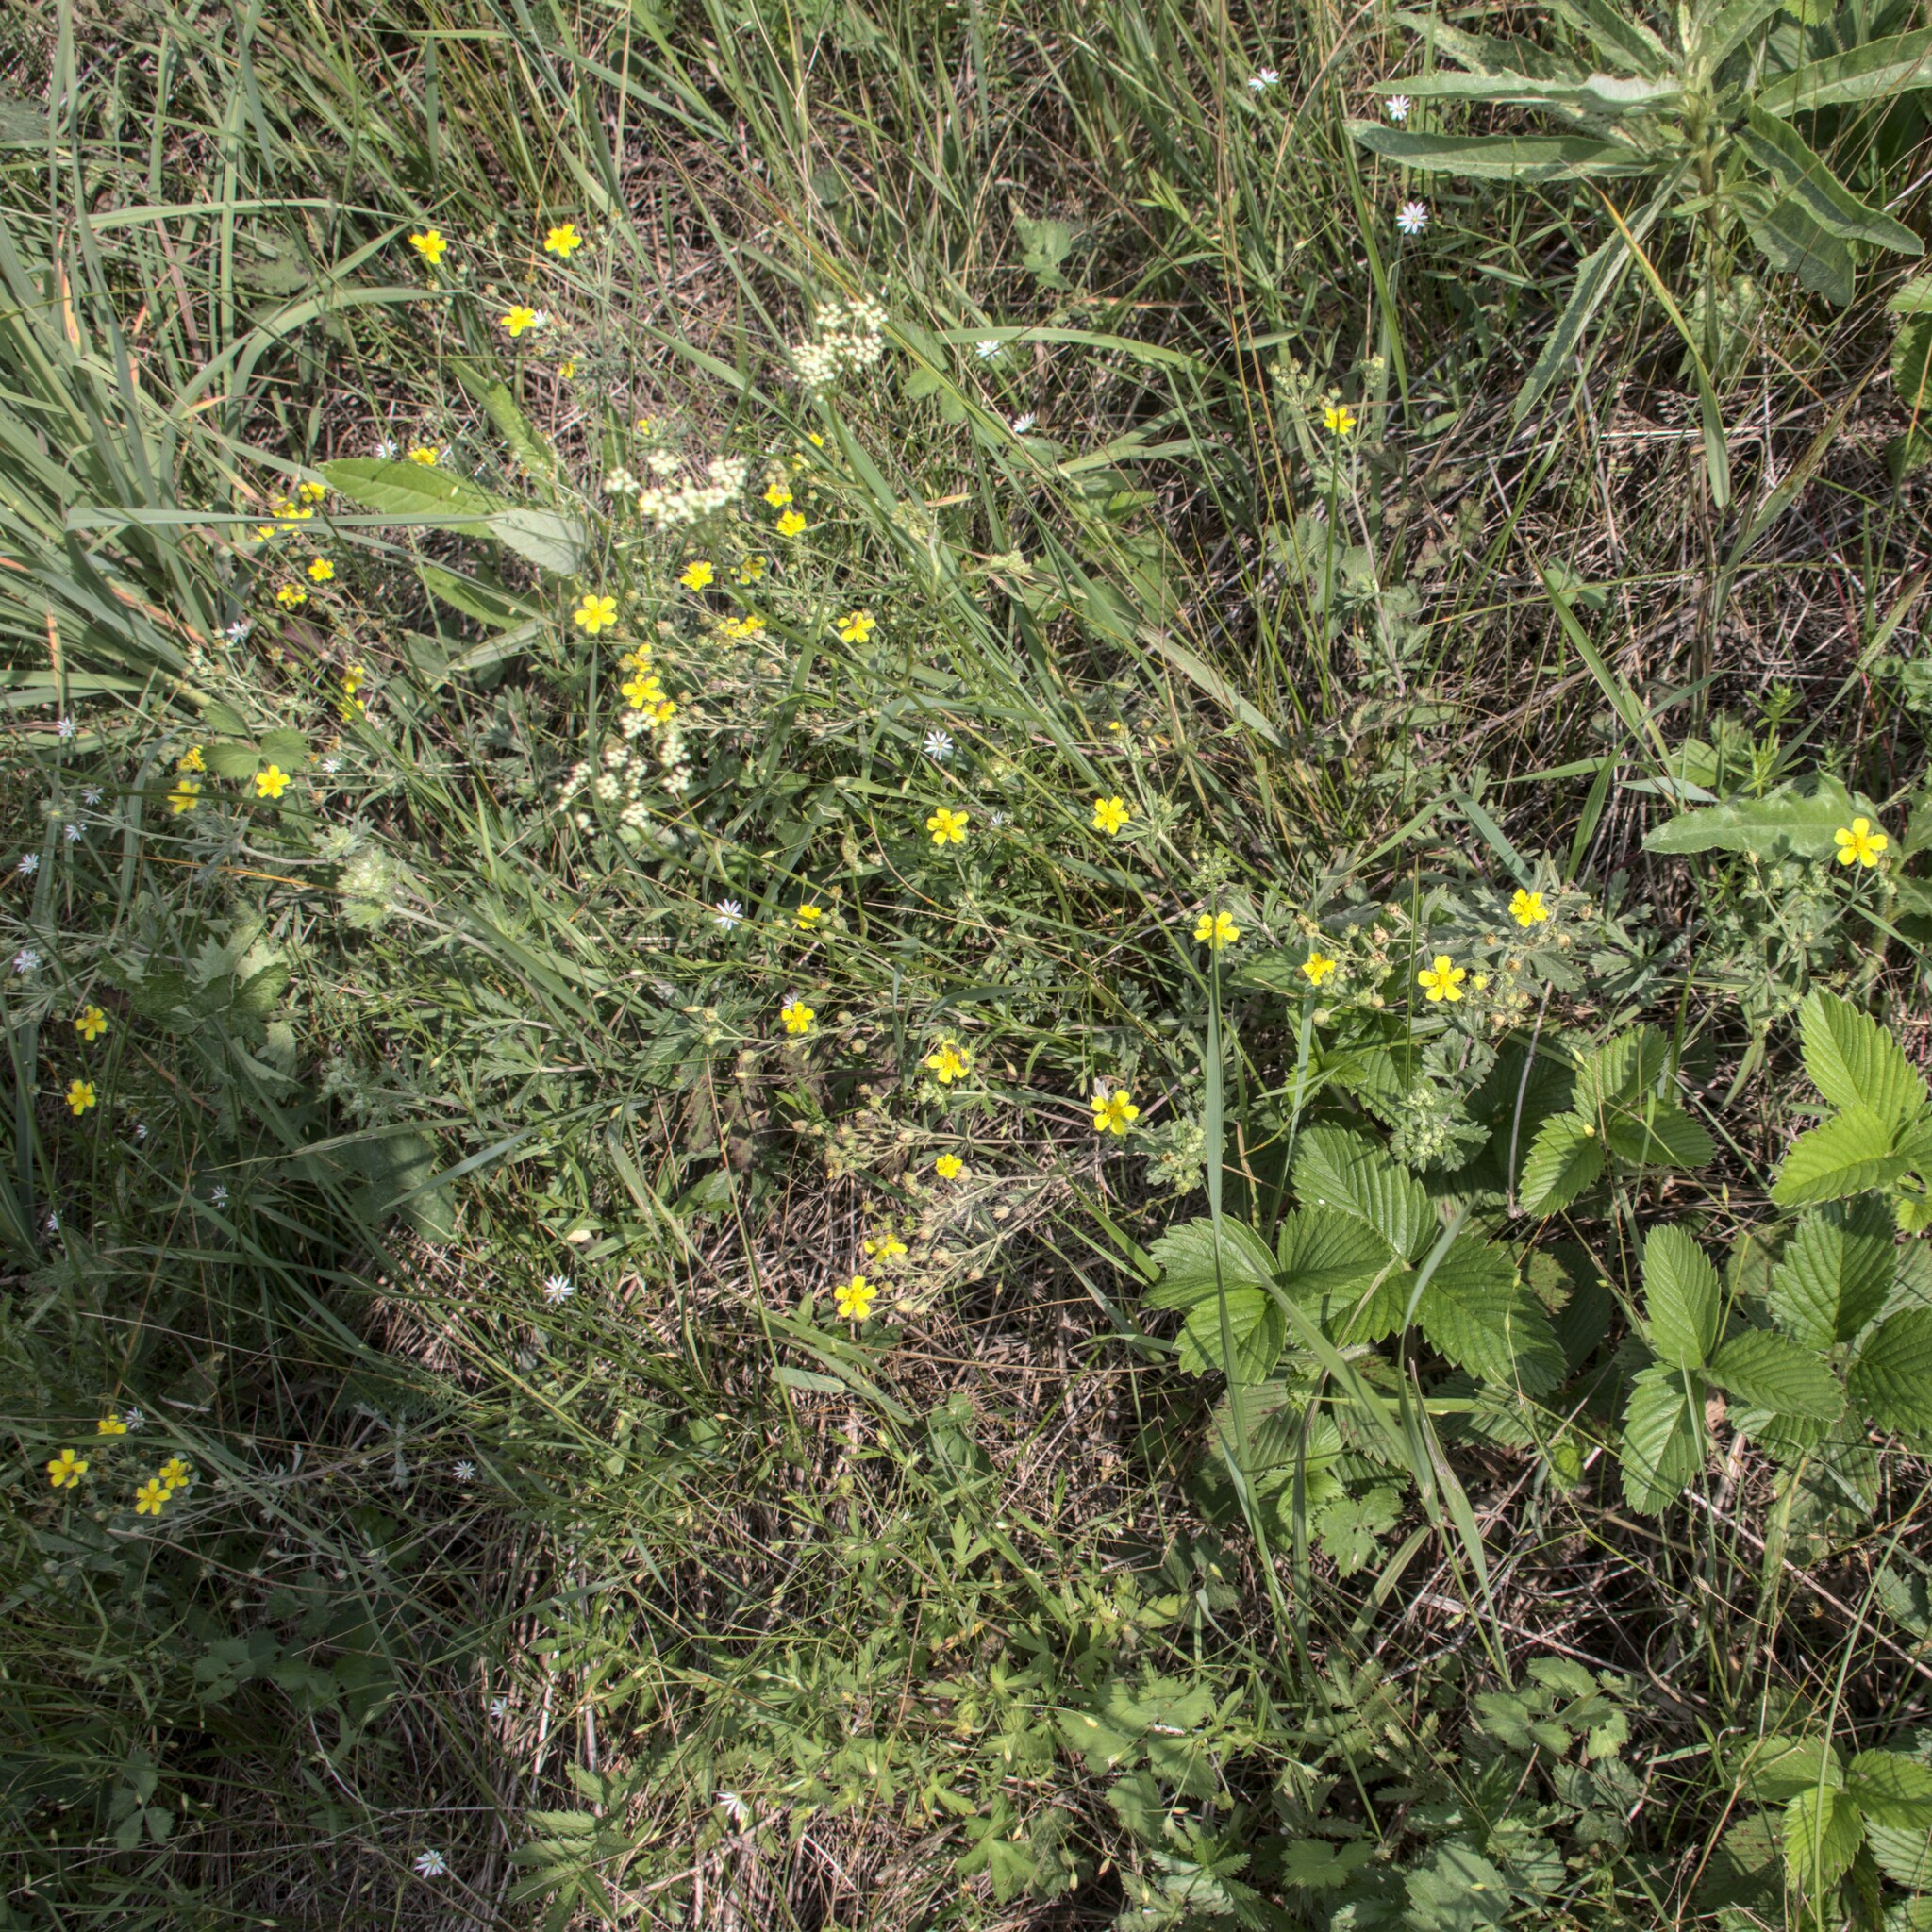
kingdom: Plantae
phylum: Tracheophyta
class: Magnoliopsida
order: Rosales
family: Rosaceae
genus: Potentilla
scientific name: Potentilla argentea
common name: Hoary cinquefoil
